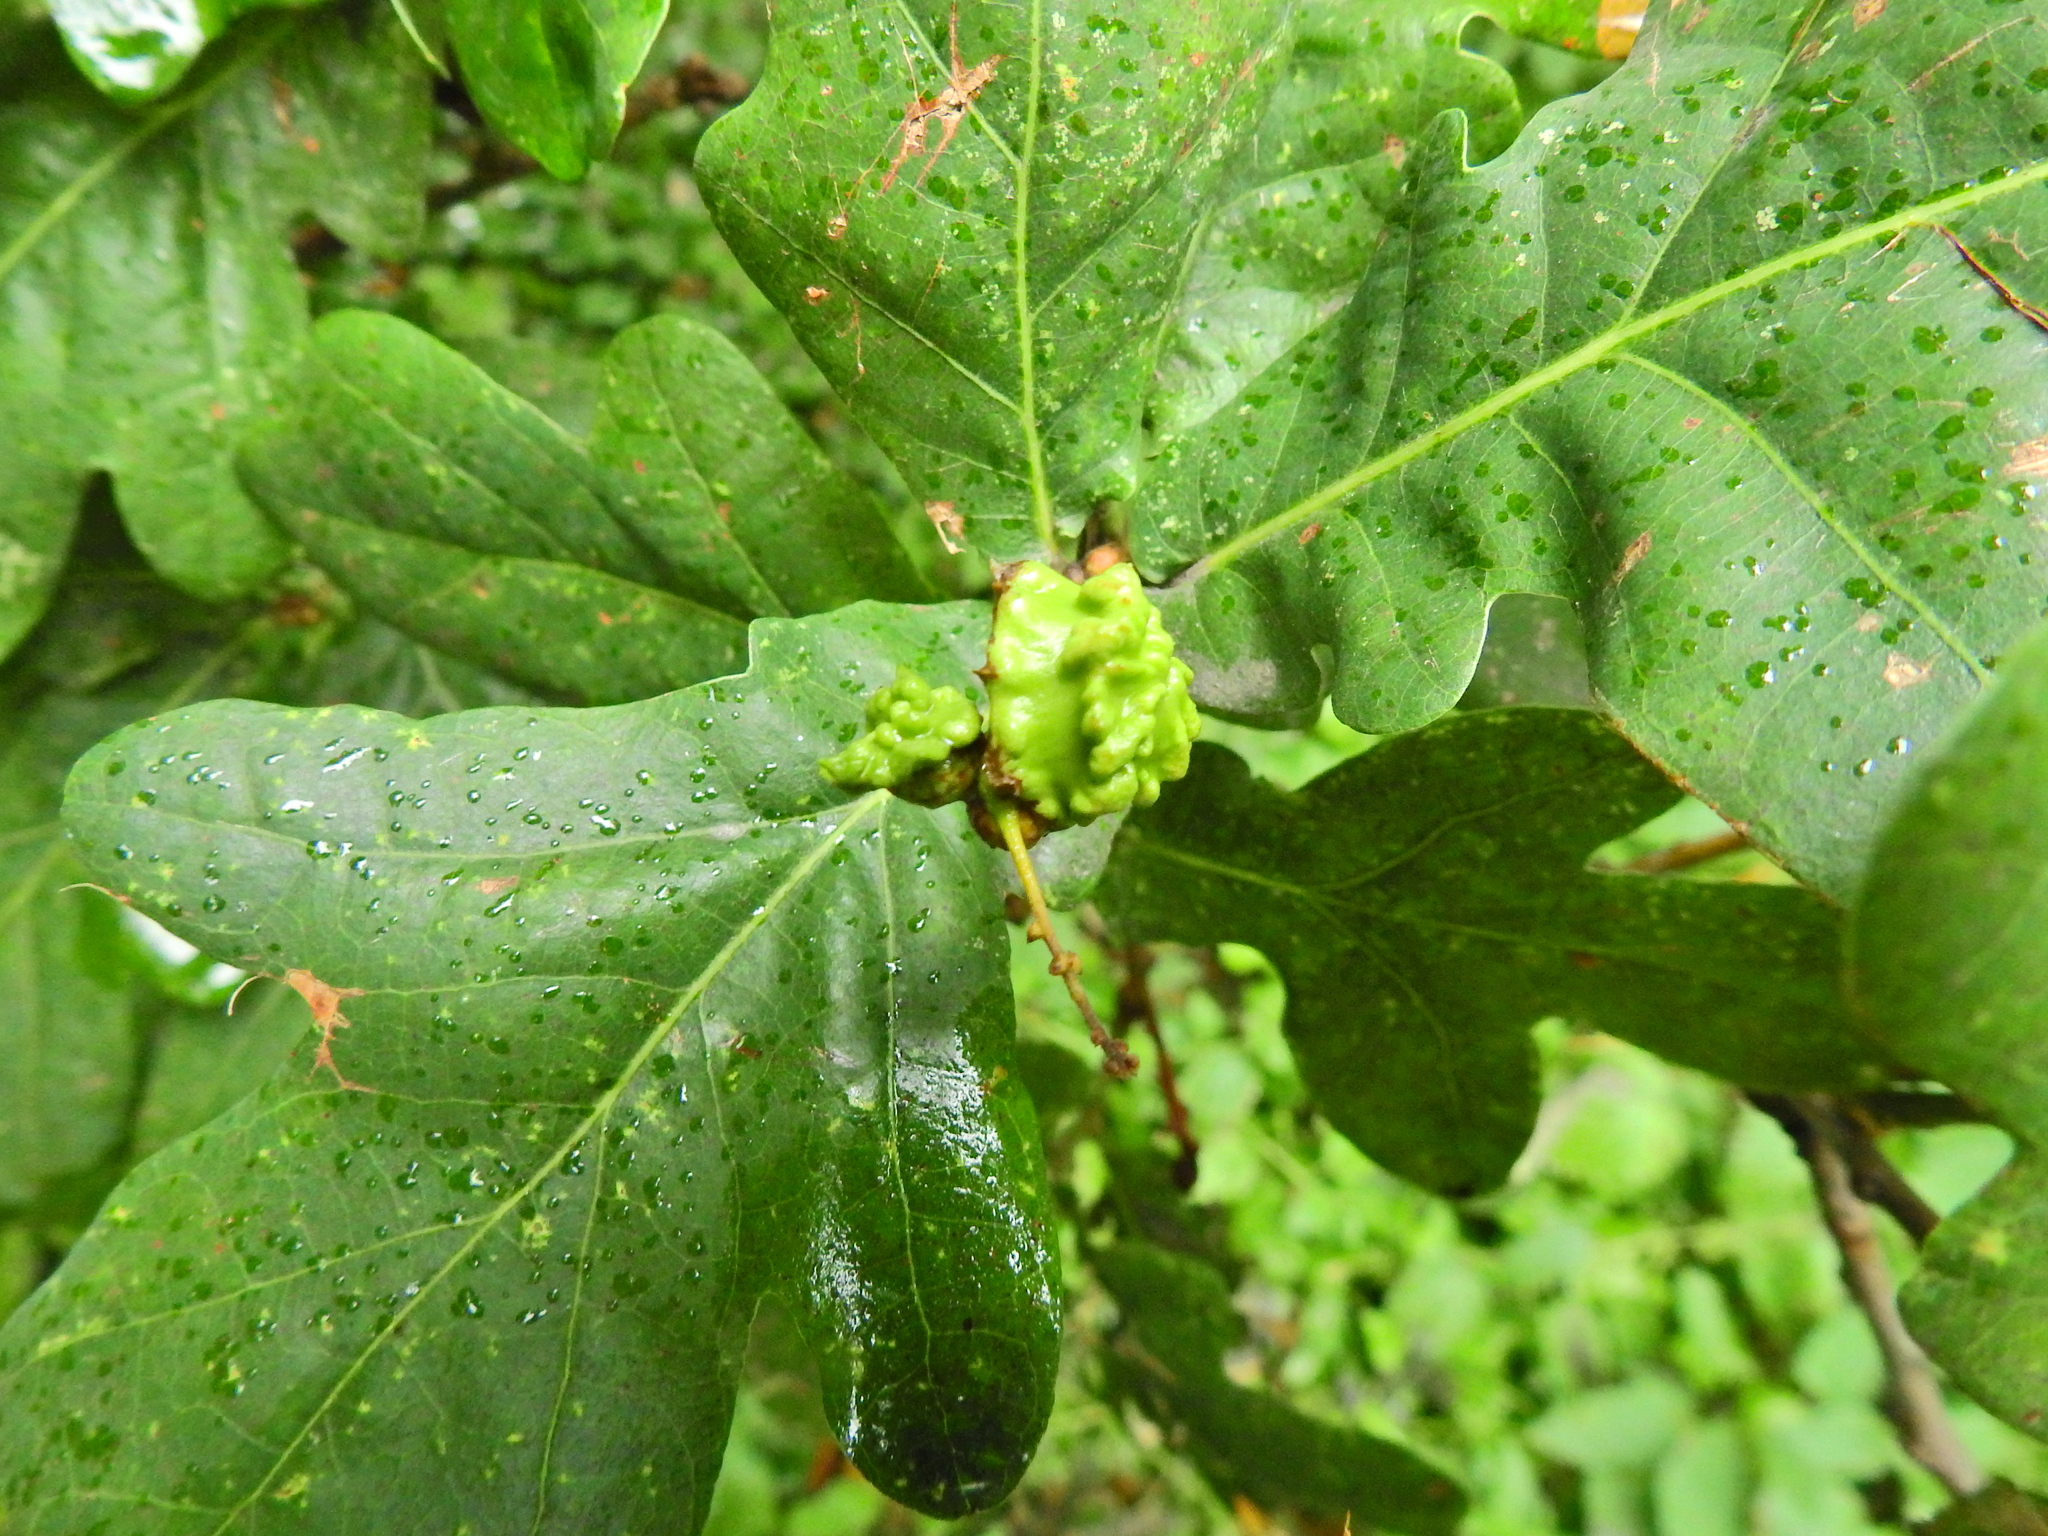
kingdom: Animalia
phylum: Arthropoda
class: Insecta
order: Hymenoptera
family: Cynipidae
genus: Andricus
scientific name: Andricus quercuscalicis
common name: Knopper gall
